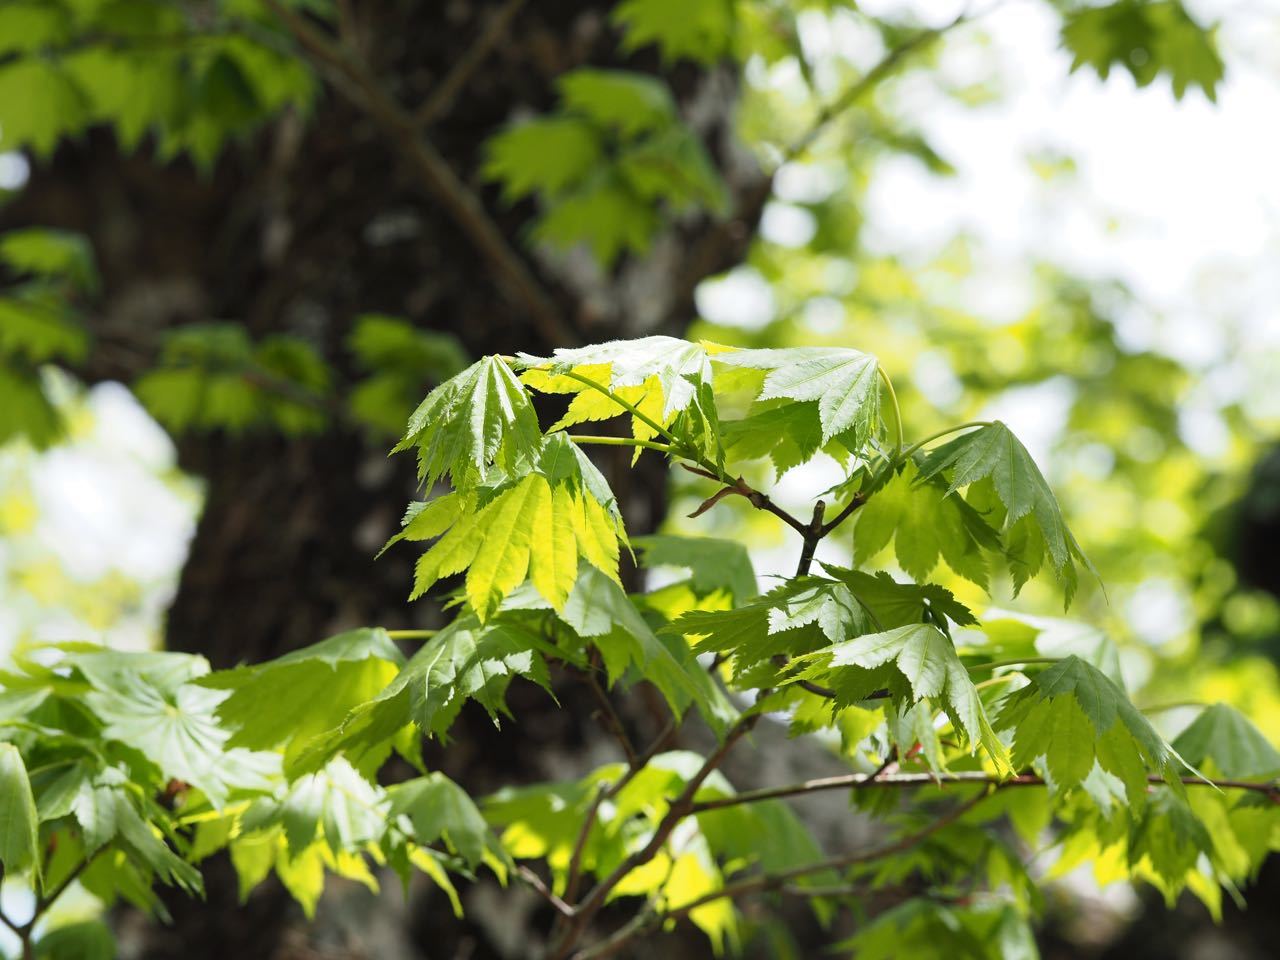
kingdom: Plantae
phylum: Tracheophyta
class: Magnoliopsida
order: Sapindales
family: Sapindaceae
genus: Acer
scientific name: Acer shirasawanum
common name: Full moon maple
